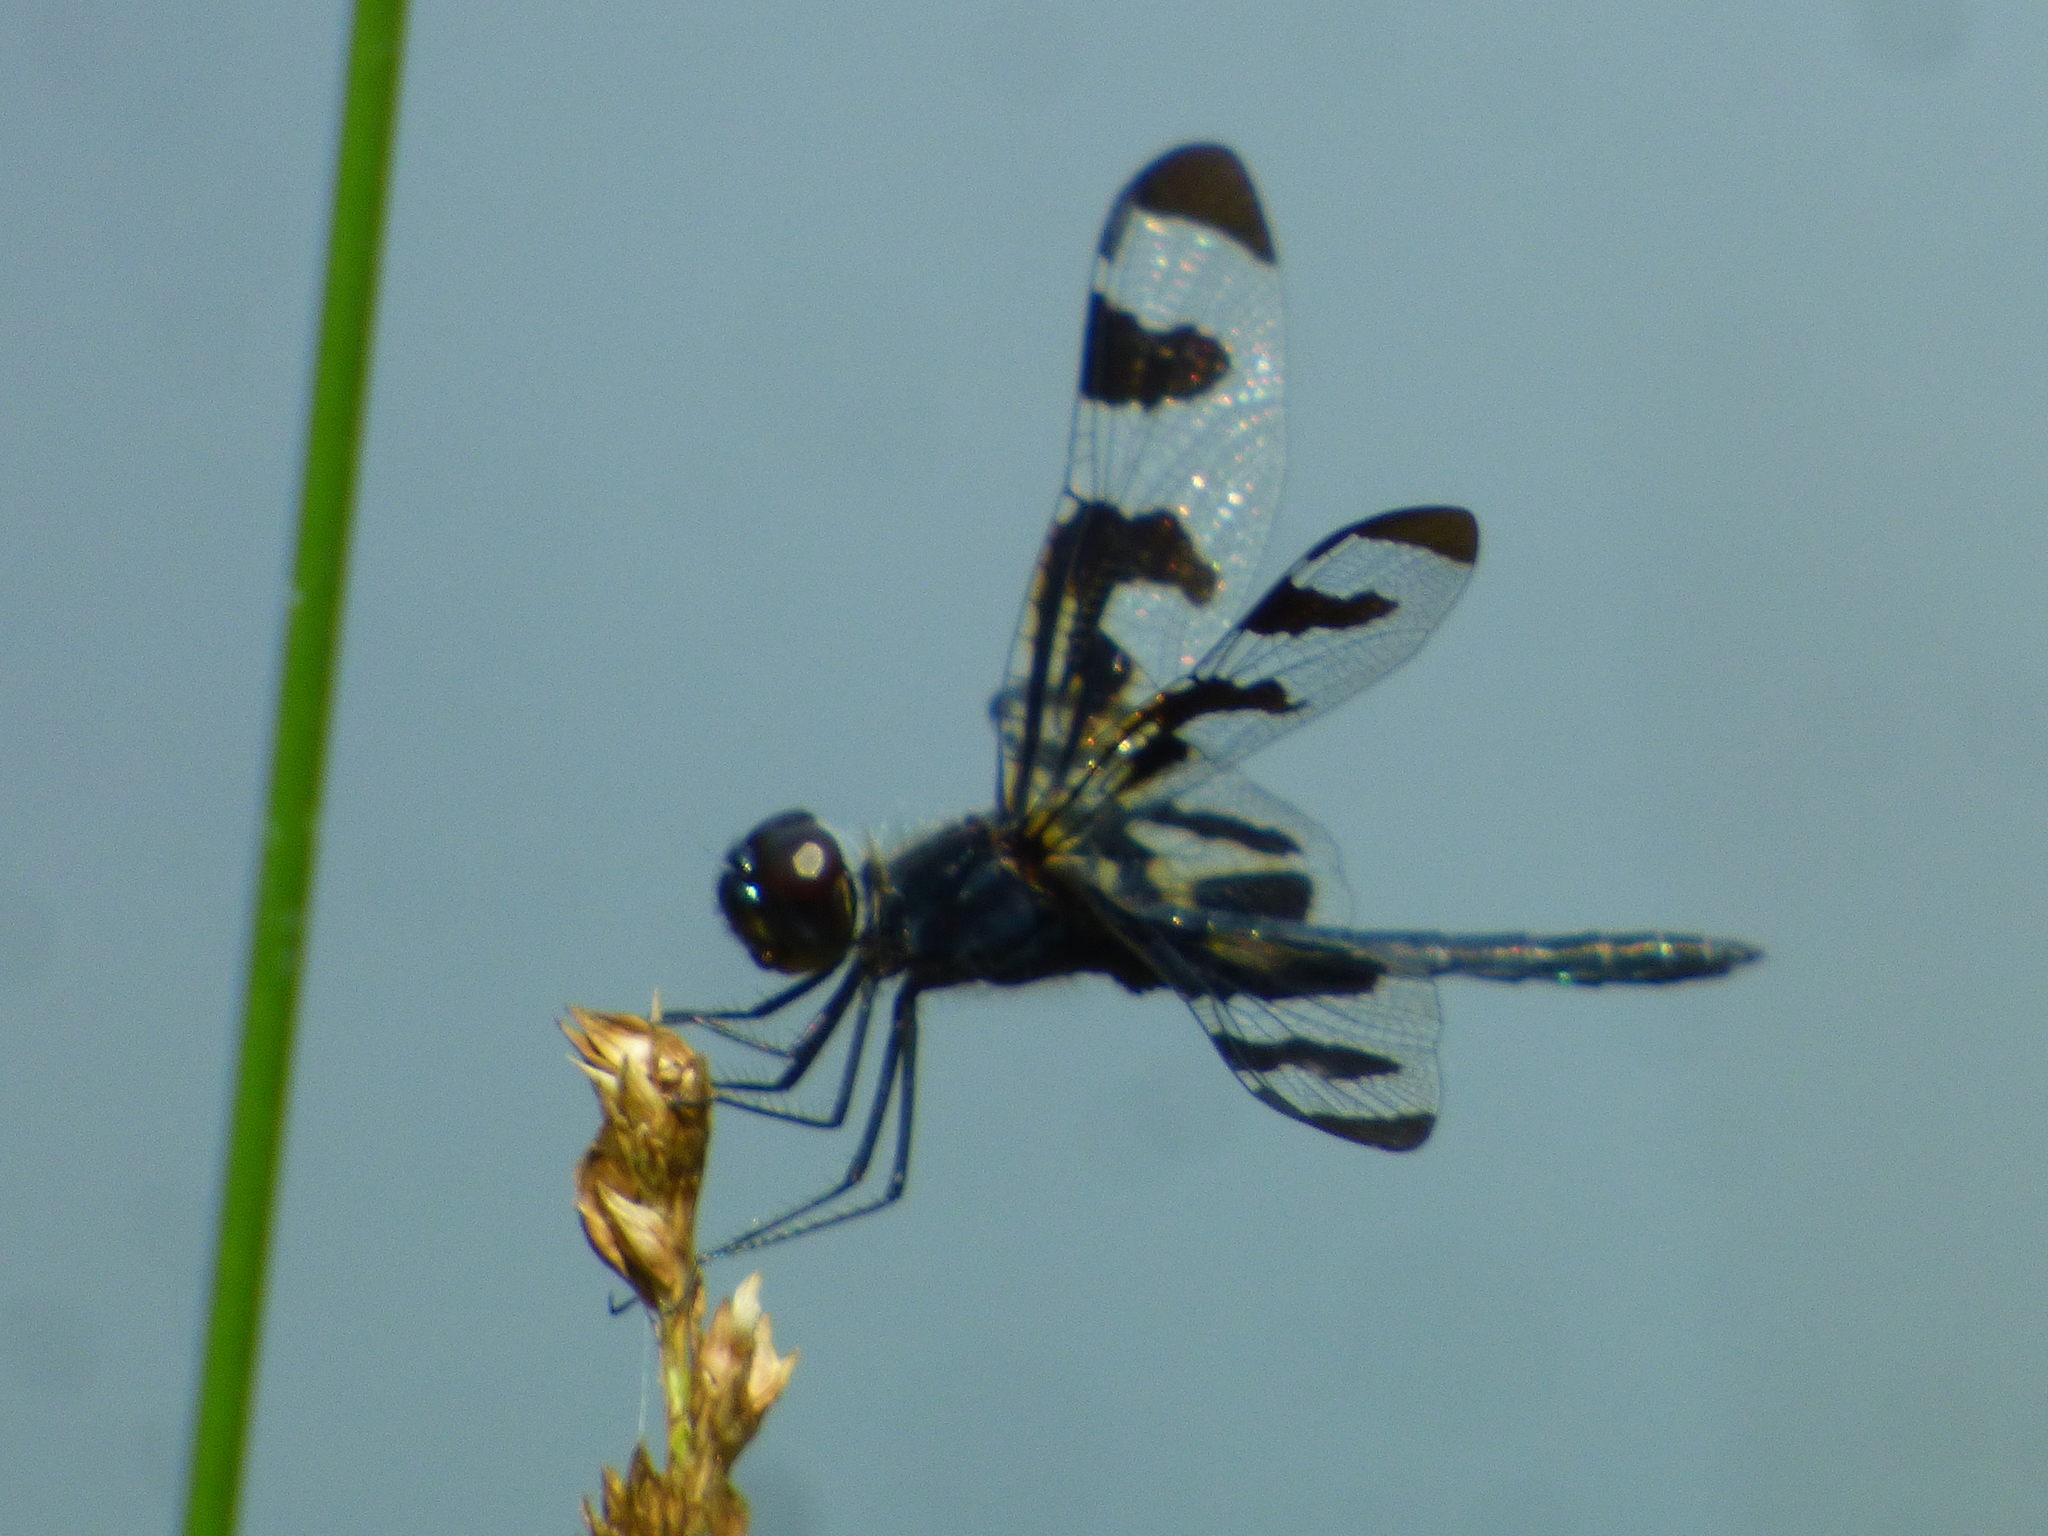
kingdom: Animalia
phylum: Arthropoda
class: Insecta
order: Odonata
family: Libellulidae
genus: Celithemis
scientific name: Celithemis fasciata
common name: Banded pennant
